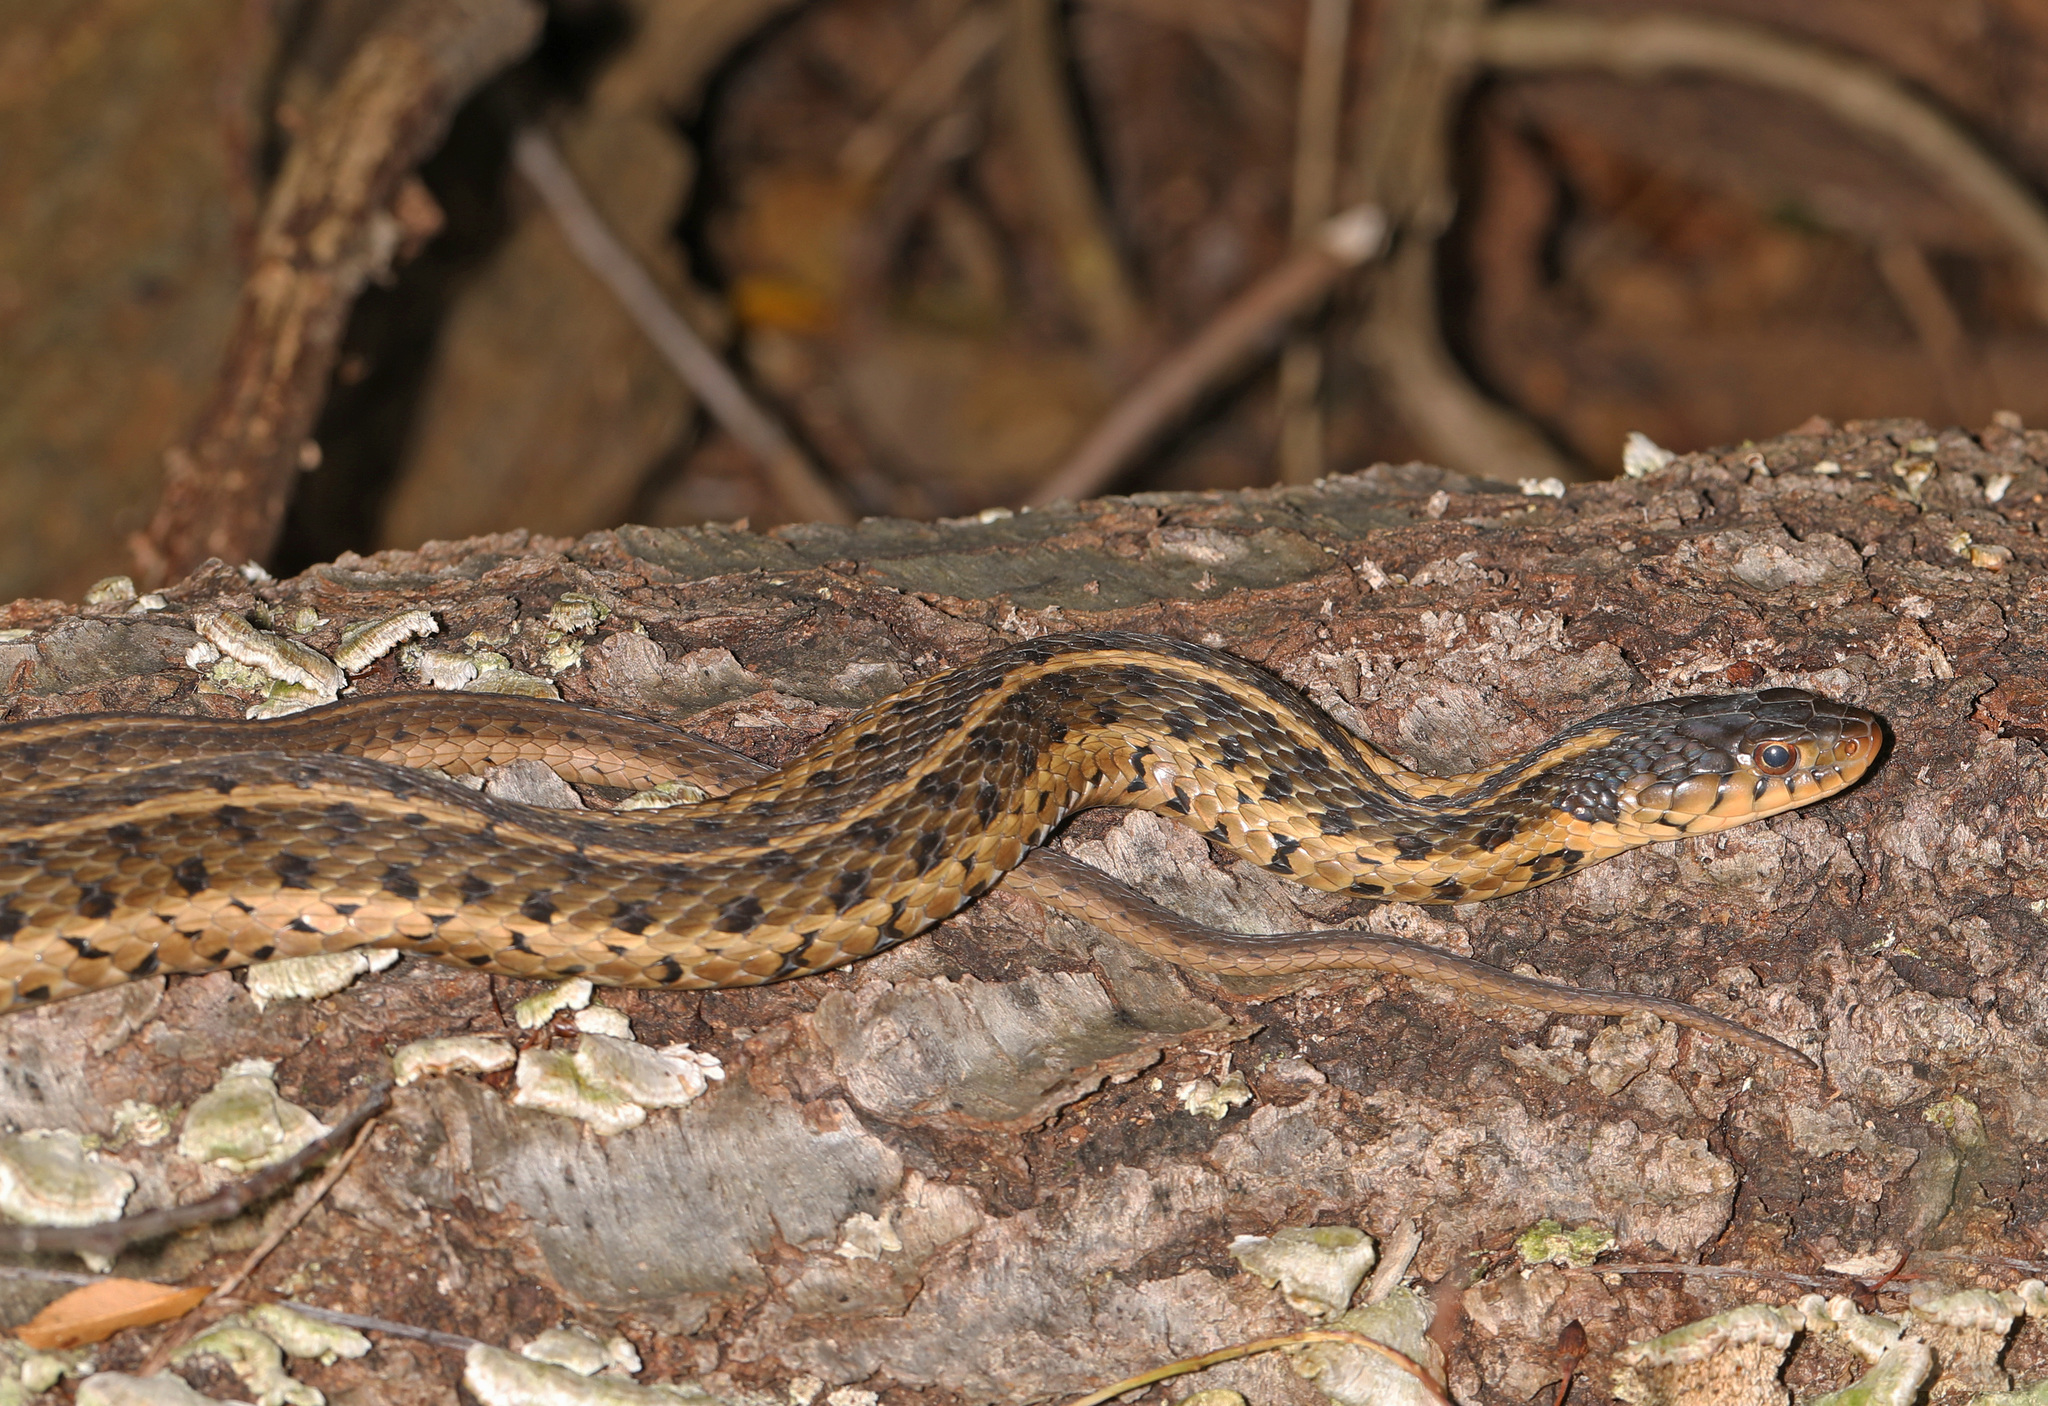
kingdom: Animalia
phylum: Chordata
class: Squamata
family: Colubridae
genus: Thamnophis
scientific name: Thamnophis sirtalis
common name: Common garter snake
